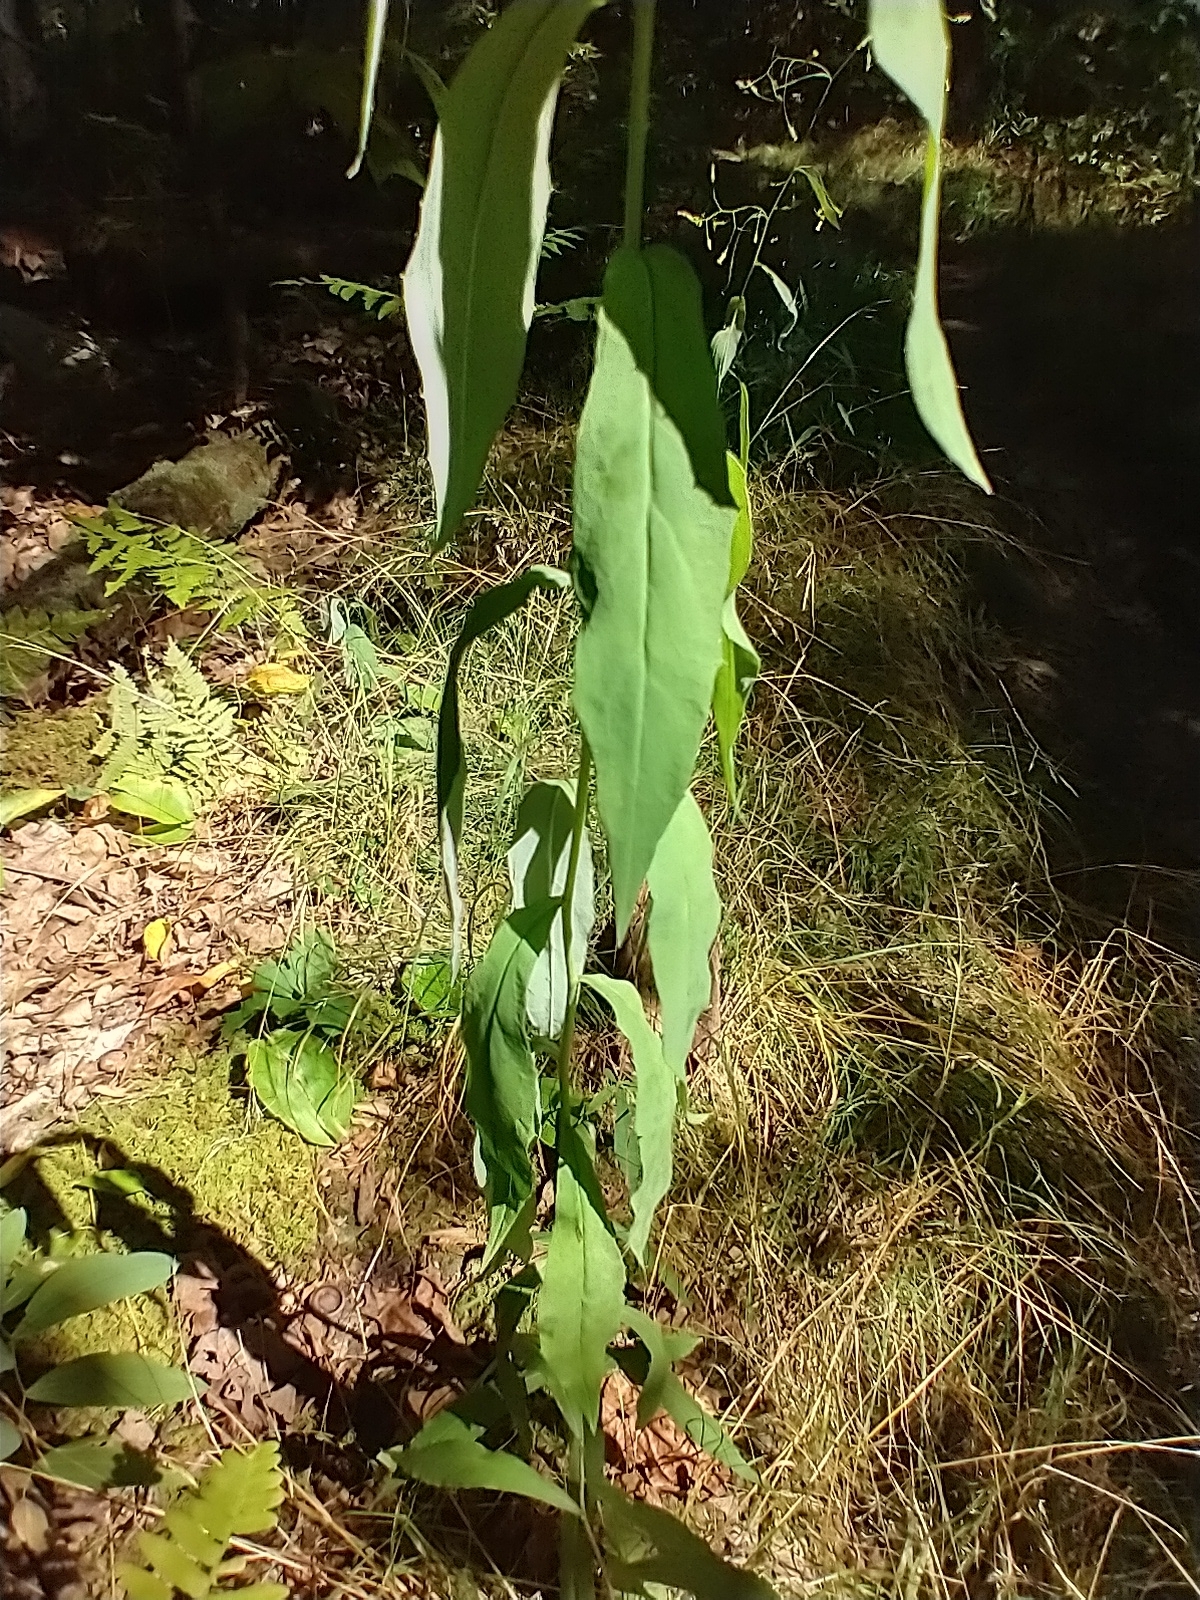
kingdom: Plantae
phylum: Tracheophyta
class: Magnoliopsida
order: Asterales
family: Asteraceae
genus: Hieracium
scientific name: Hieracium paniculatum
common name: Allegheny hawkweed
